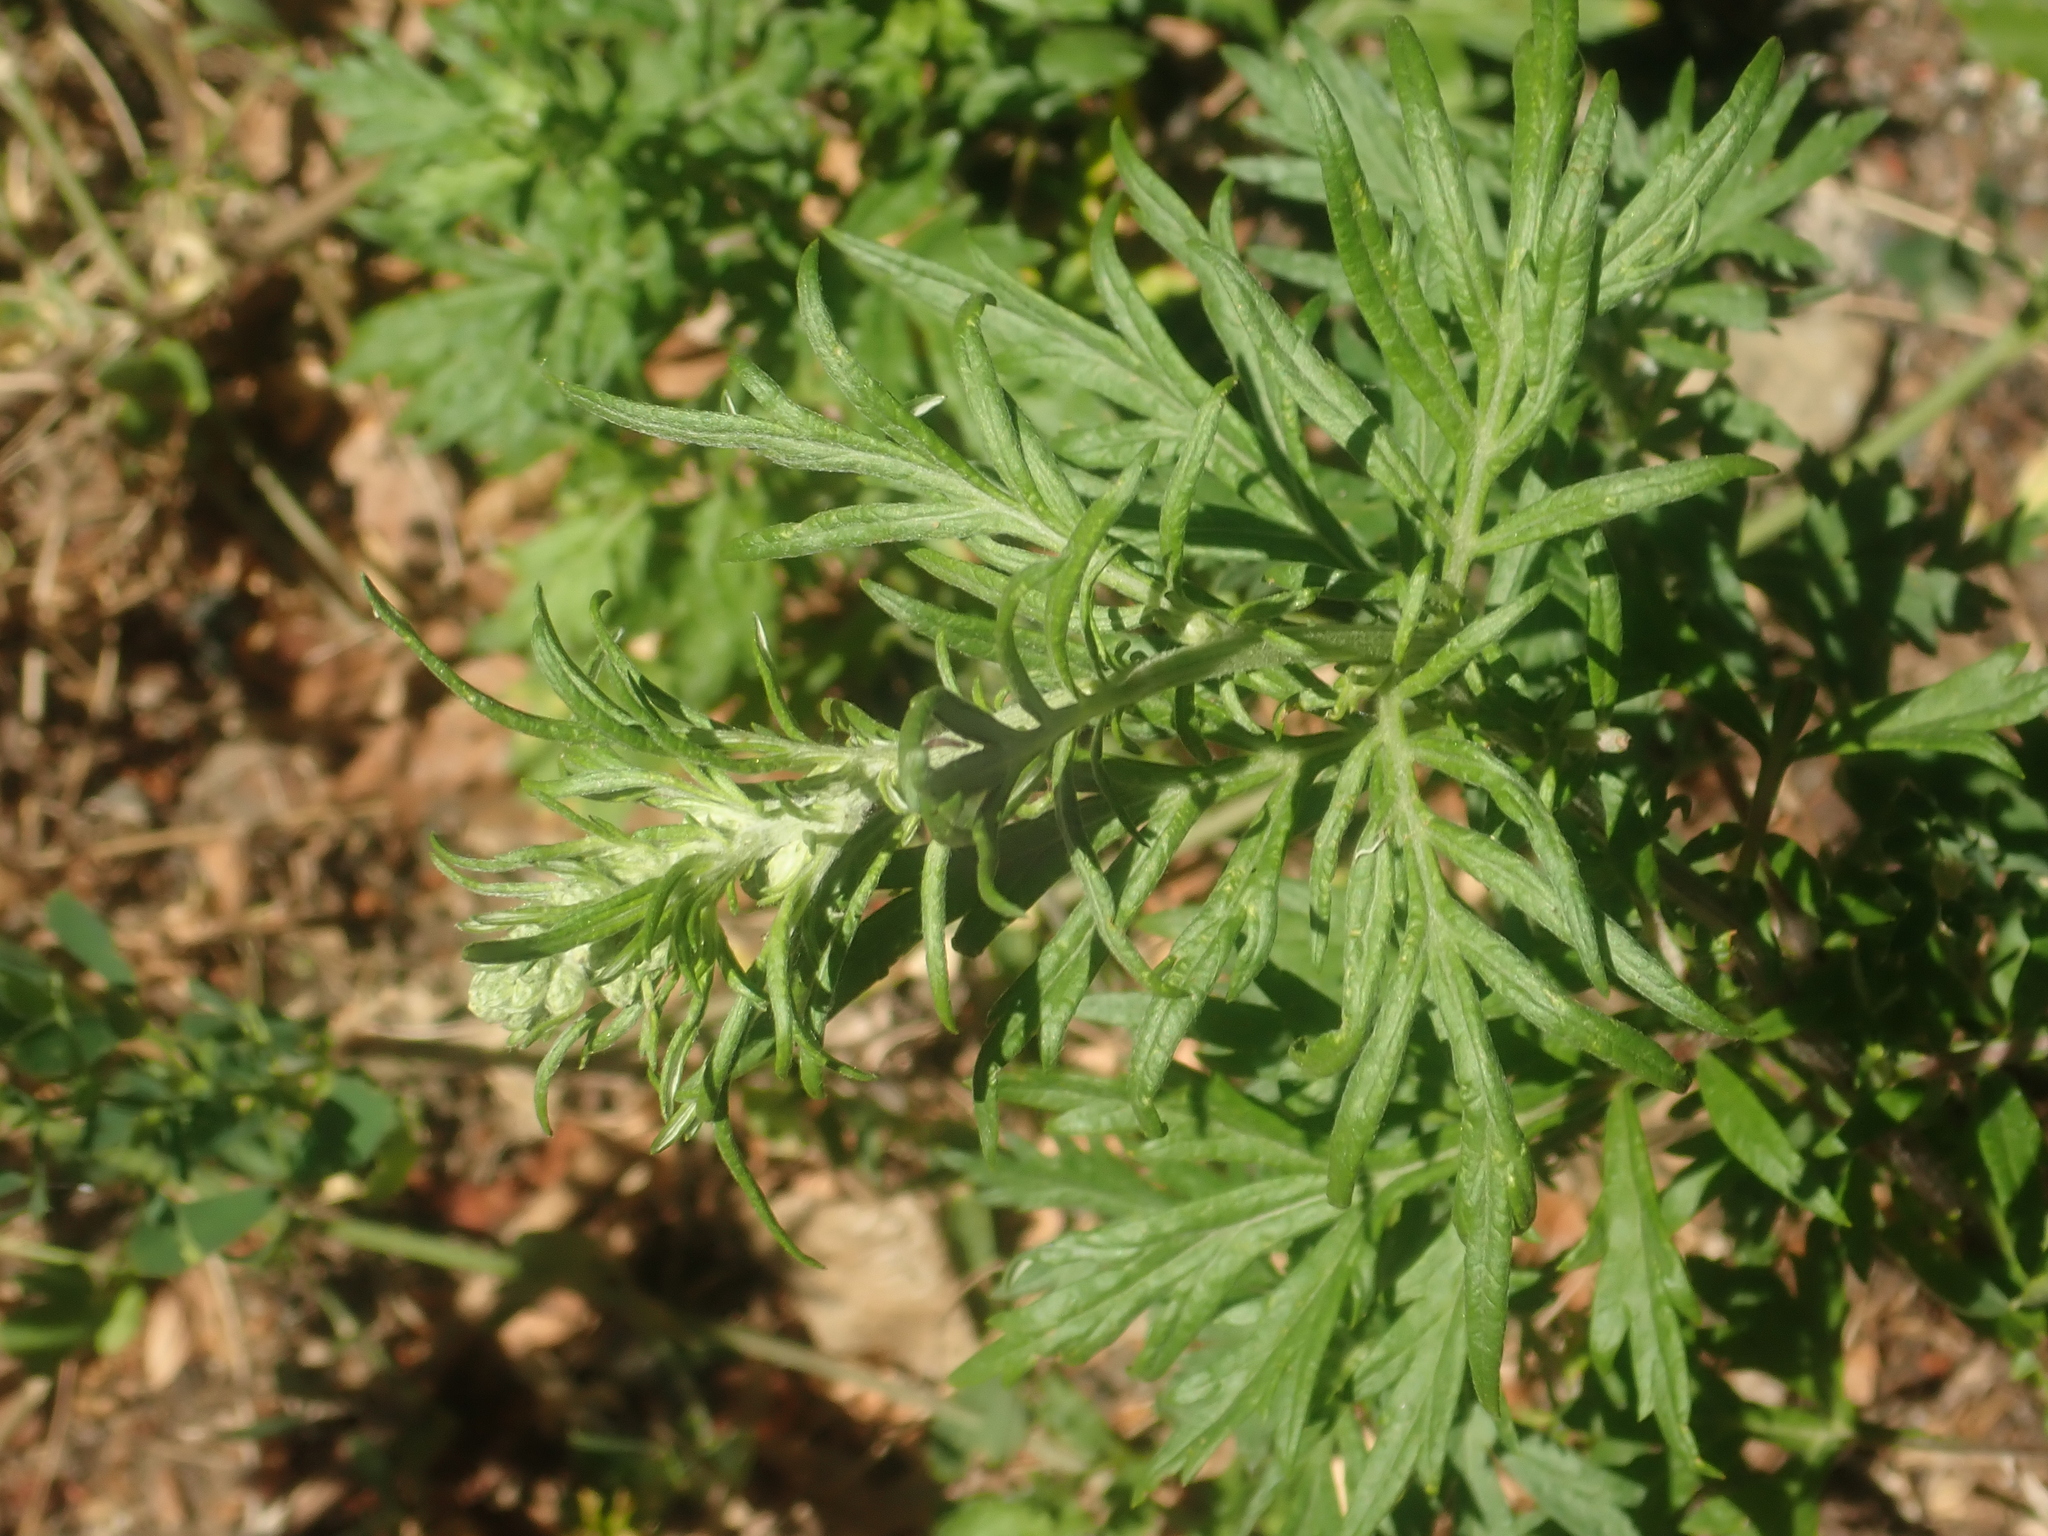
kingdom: Plantae
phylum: Tracheophyta
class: Magnoliopsida
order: Asterales
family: Asteraceae
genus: Artemisia
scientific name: Artemisia vulgaris
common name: Mugwort
